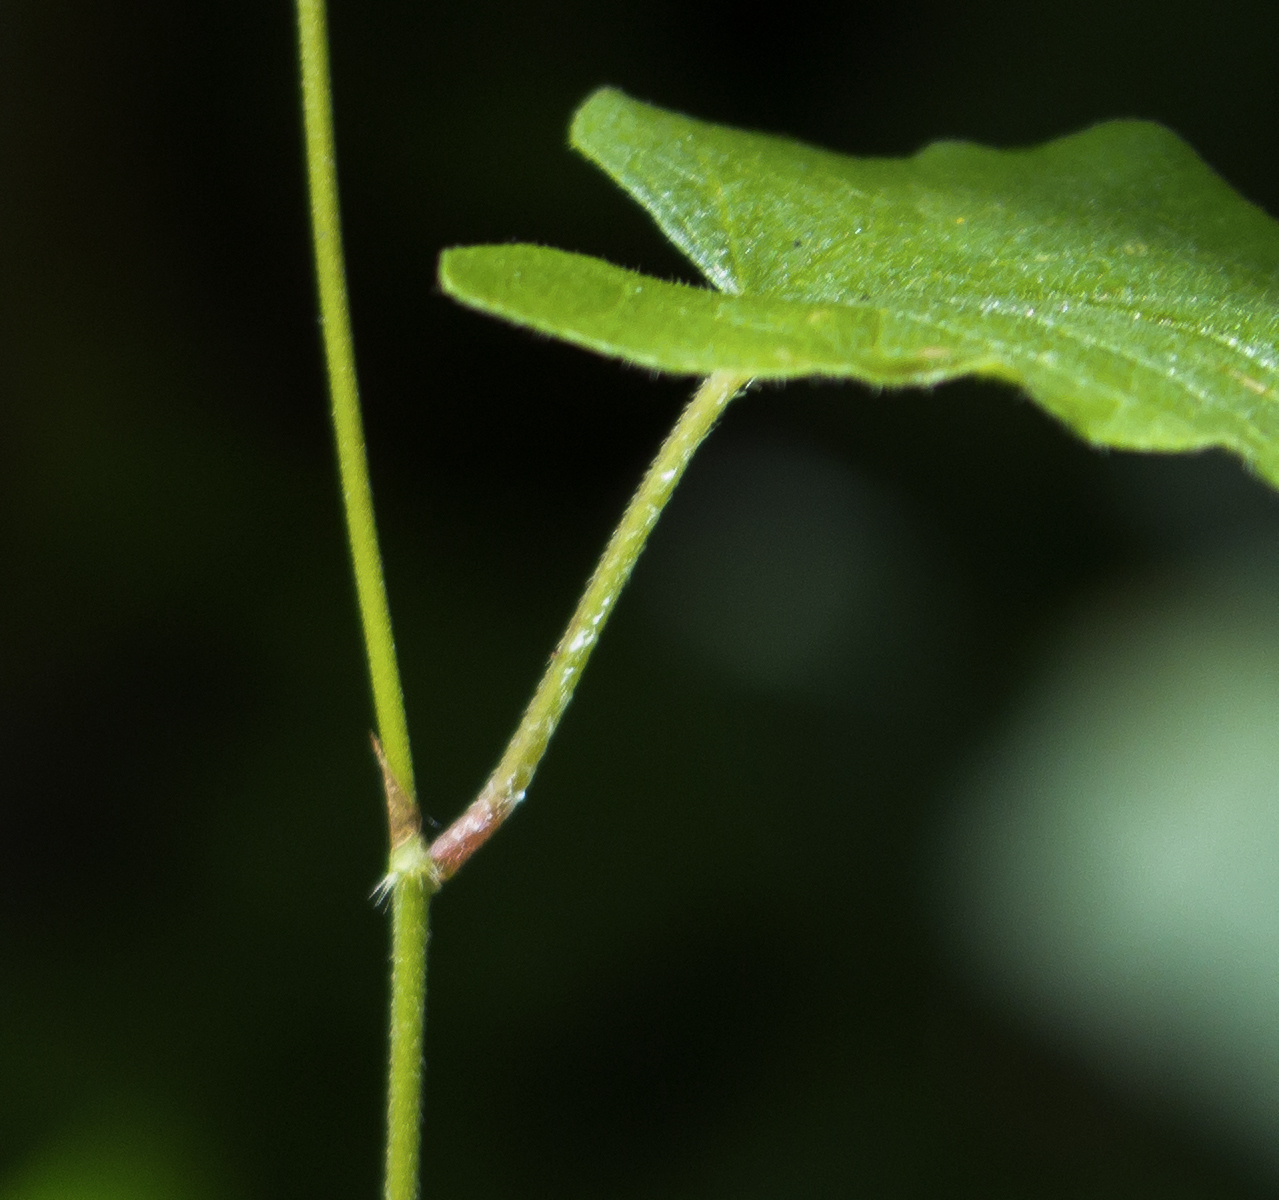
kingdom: Plantae
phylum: Tracheophyta
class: Magnoliopsida
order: Caryophyllales
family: Polygonaceae
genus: Parogonum
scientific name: Parogonum ciliinode
